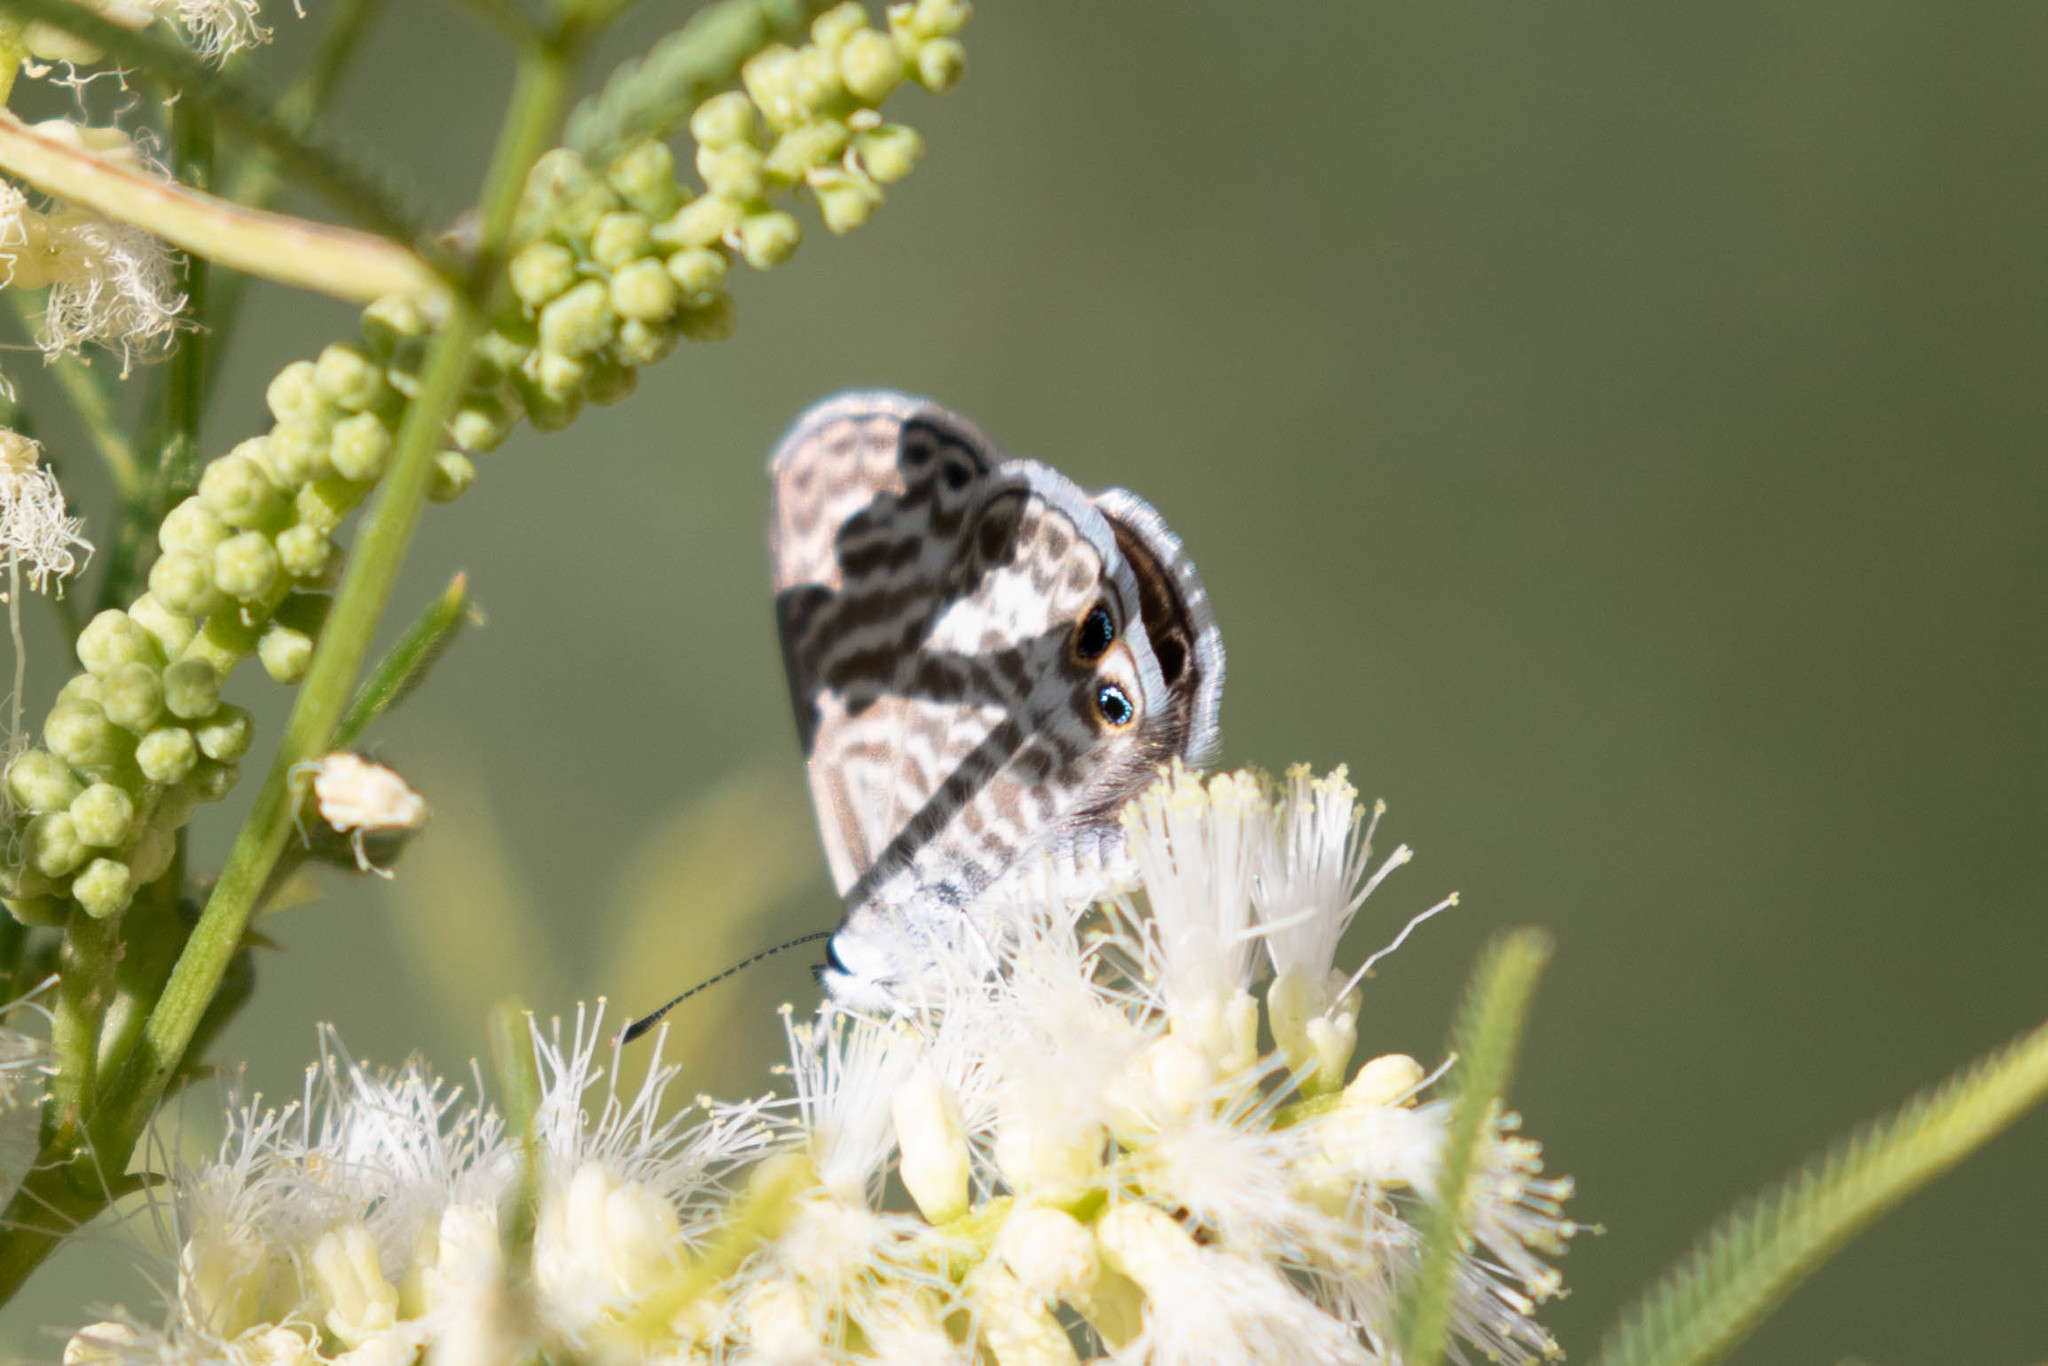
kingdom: Animalia
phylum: Arthropoda
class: Insecta
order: Lepidoptera
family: Lycaenidae
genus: Leptotes
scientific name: Leptotes marina
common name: Marine blue
